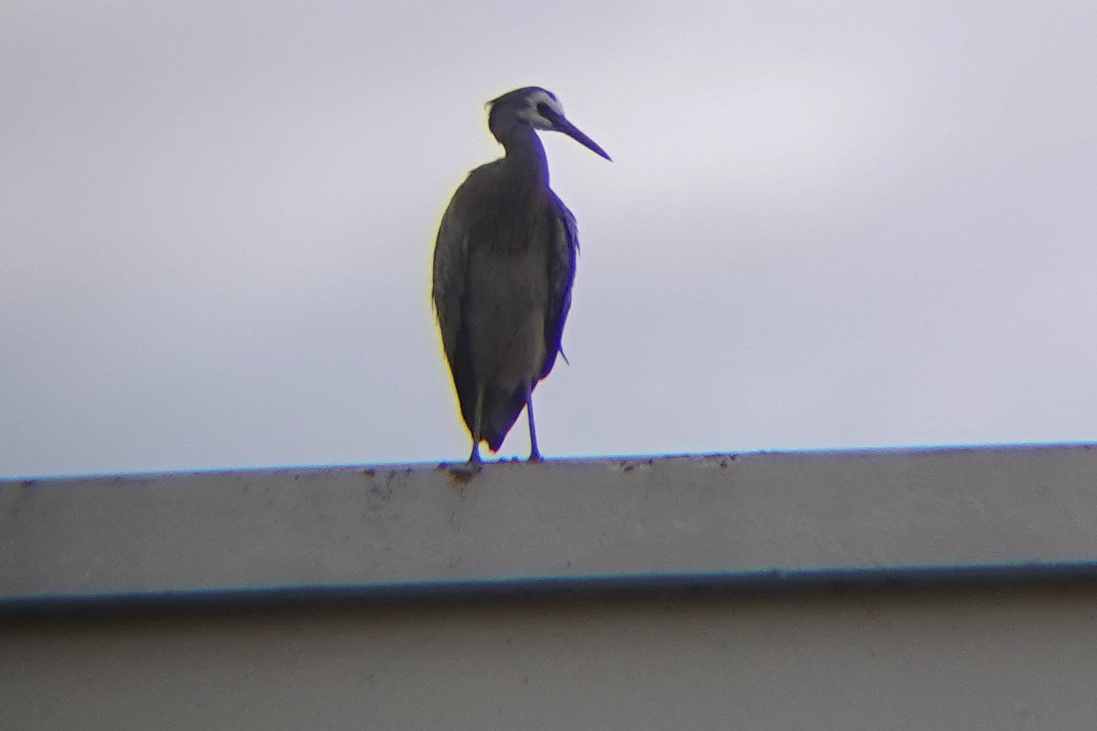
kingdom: Animalia
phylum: Chordata
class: Aves
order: Pelecaniformes
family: Ardeidae
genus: Egretta
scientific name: Egretta novaehollandiae
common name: White-faced heron
